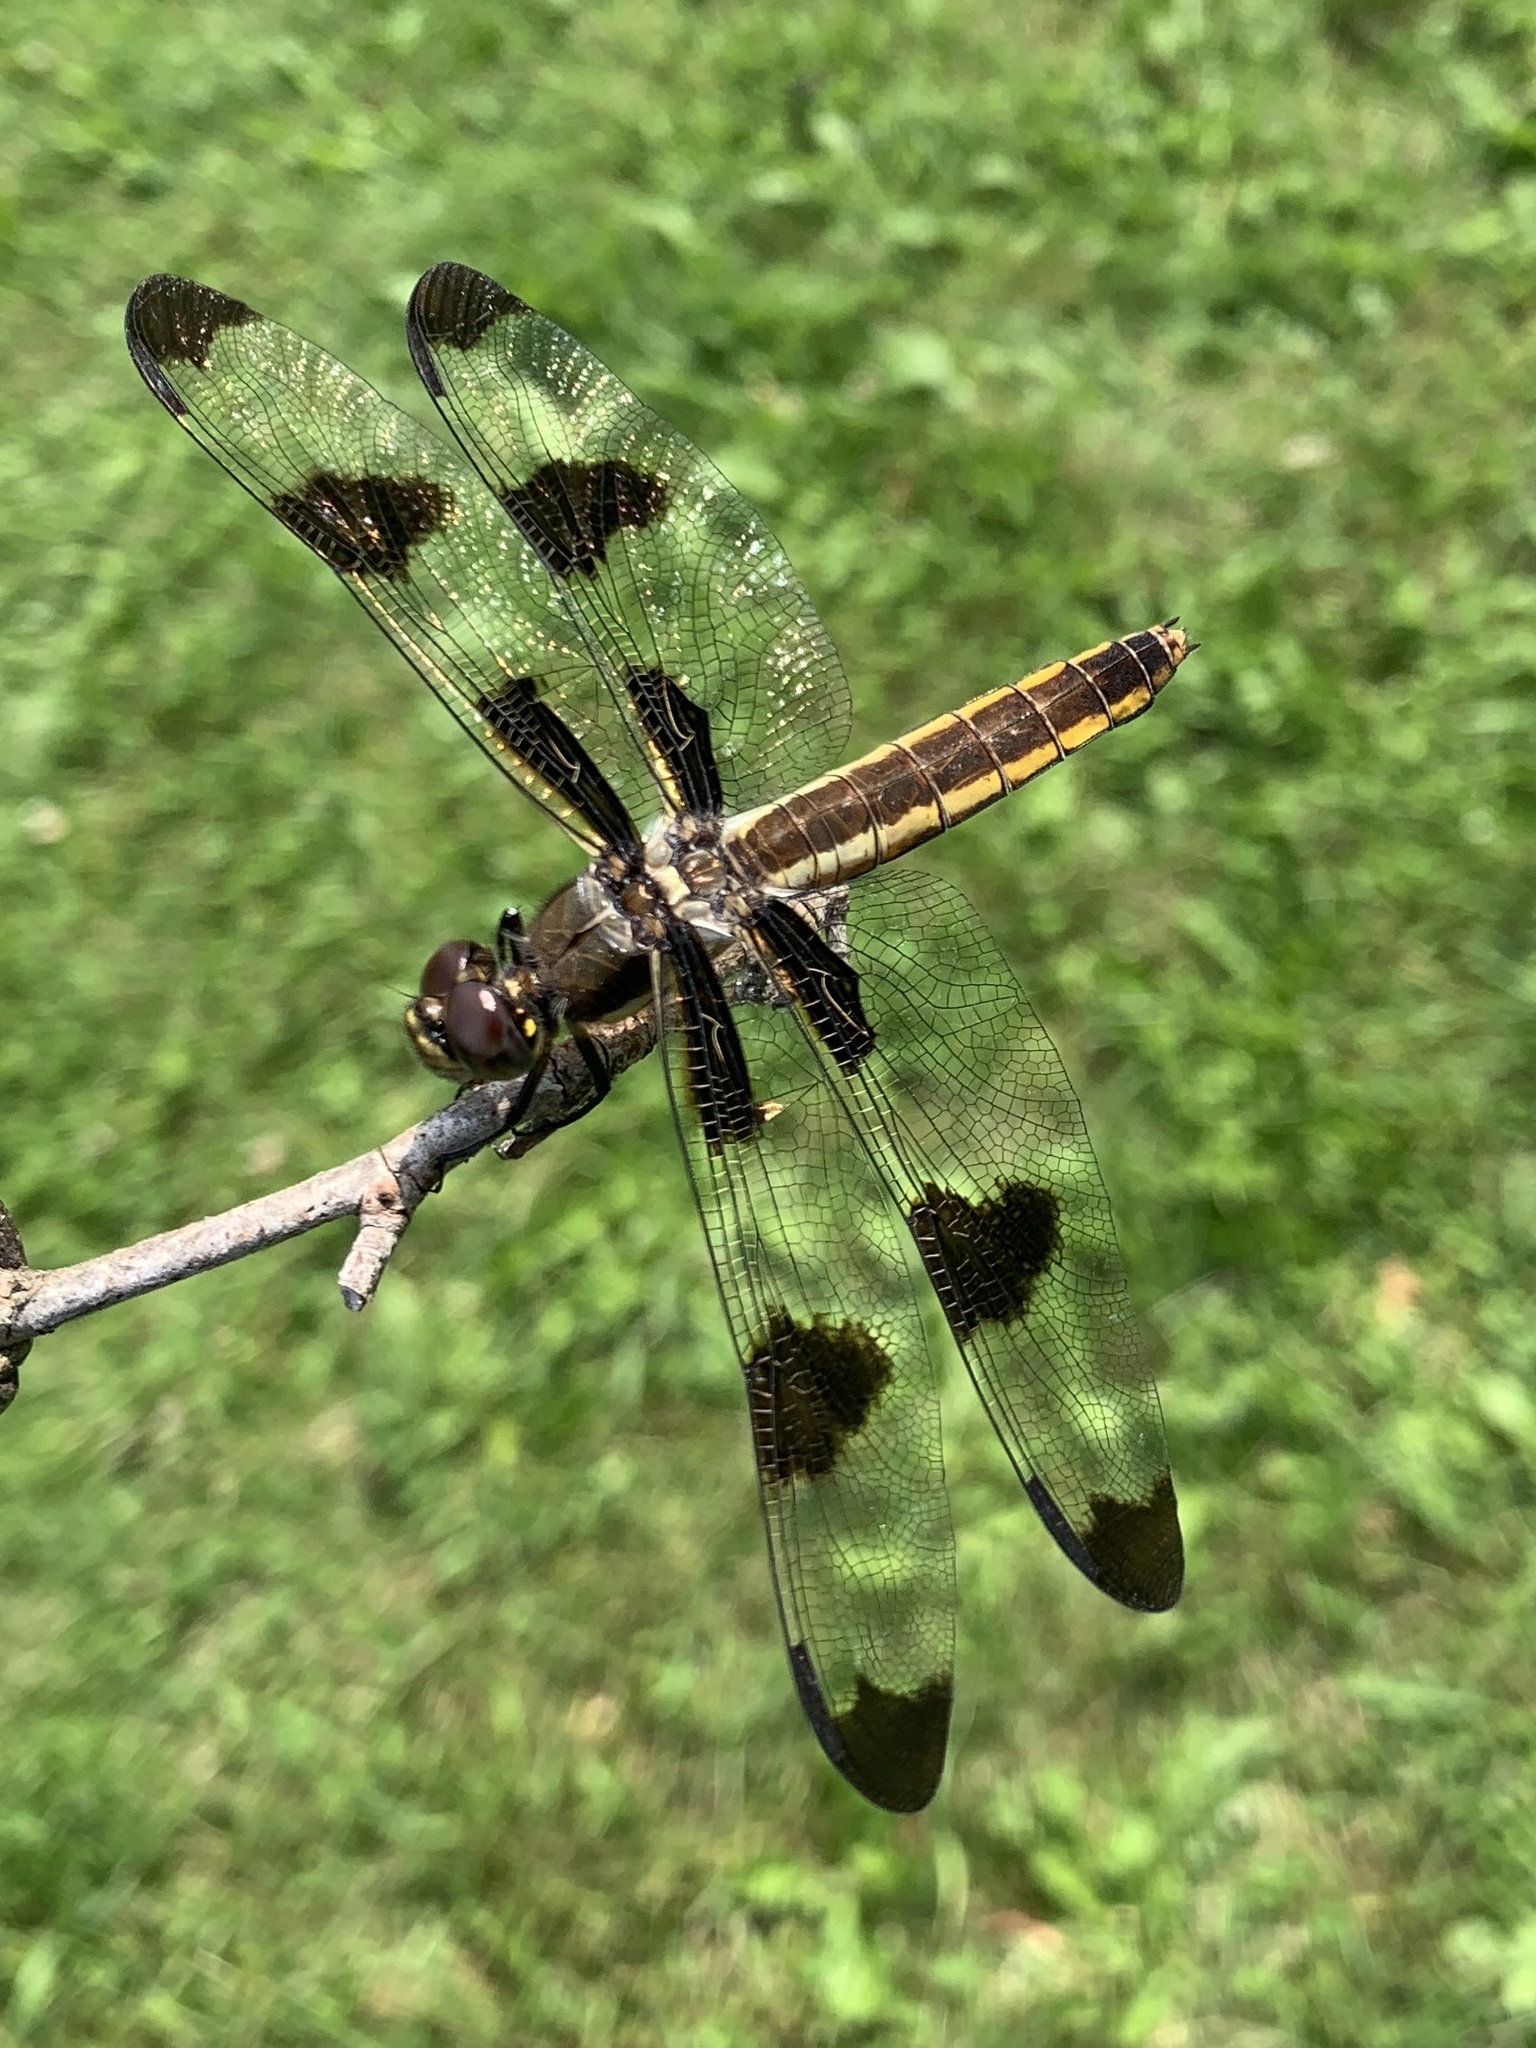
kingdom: Animalia
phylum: Arthropoda
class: Insecta
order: Odonata
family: Libellulidae
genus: Libellula
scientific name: Libellula pulchella
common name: Twelve-spotted skimmer
